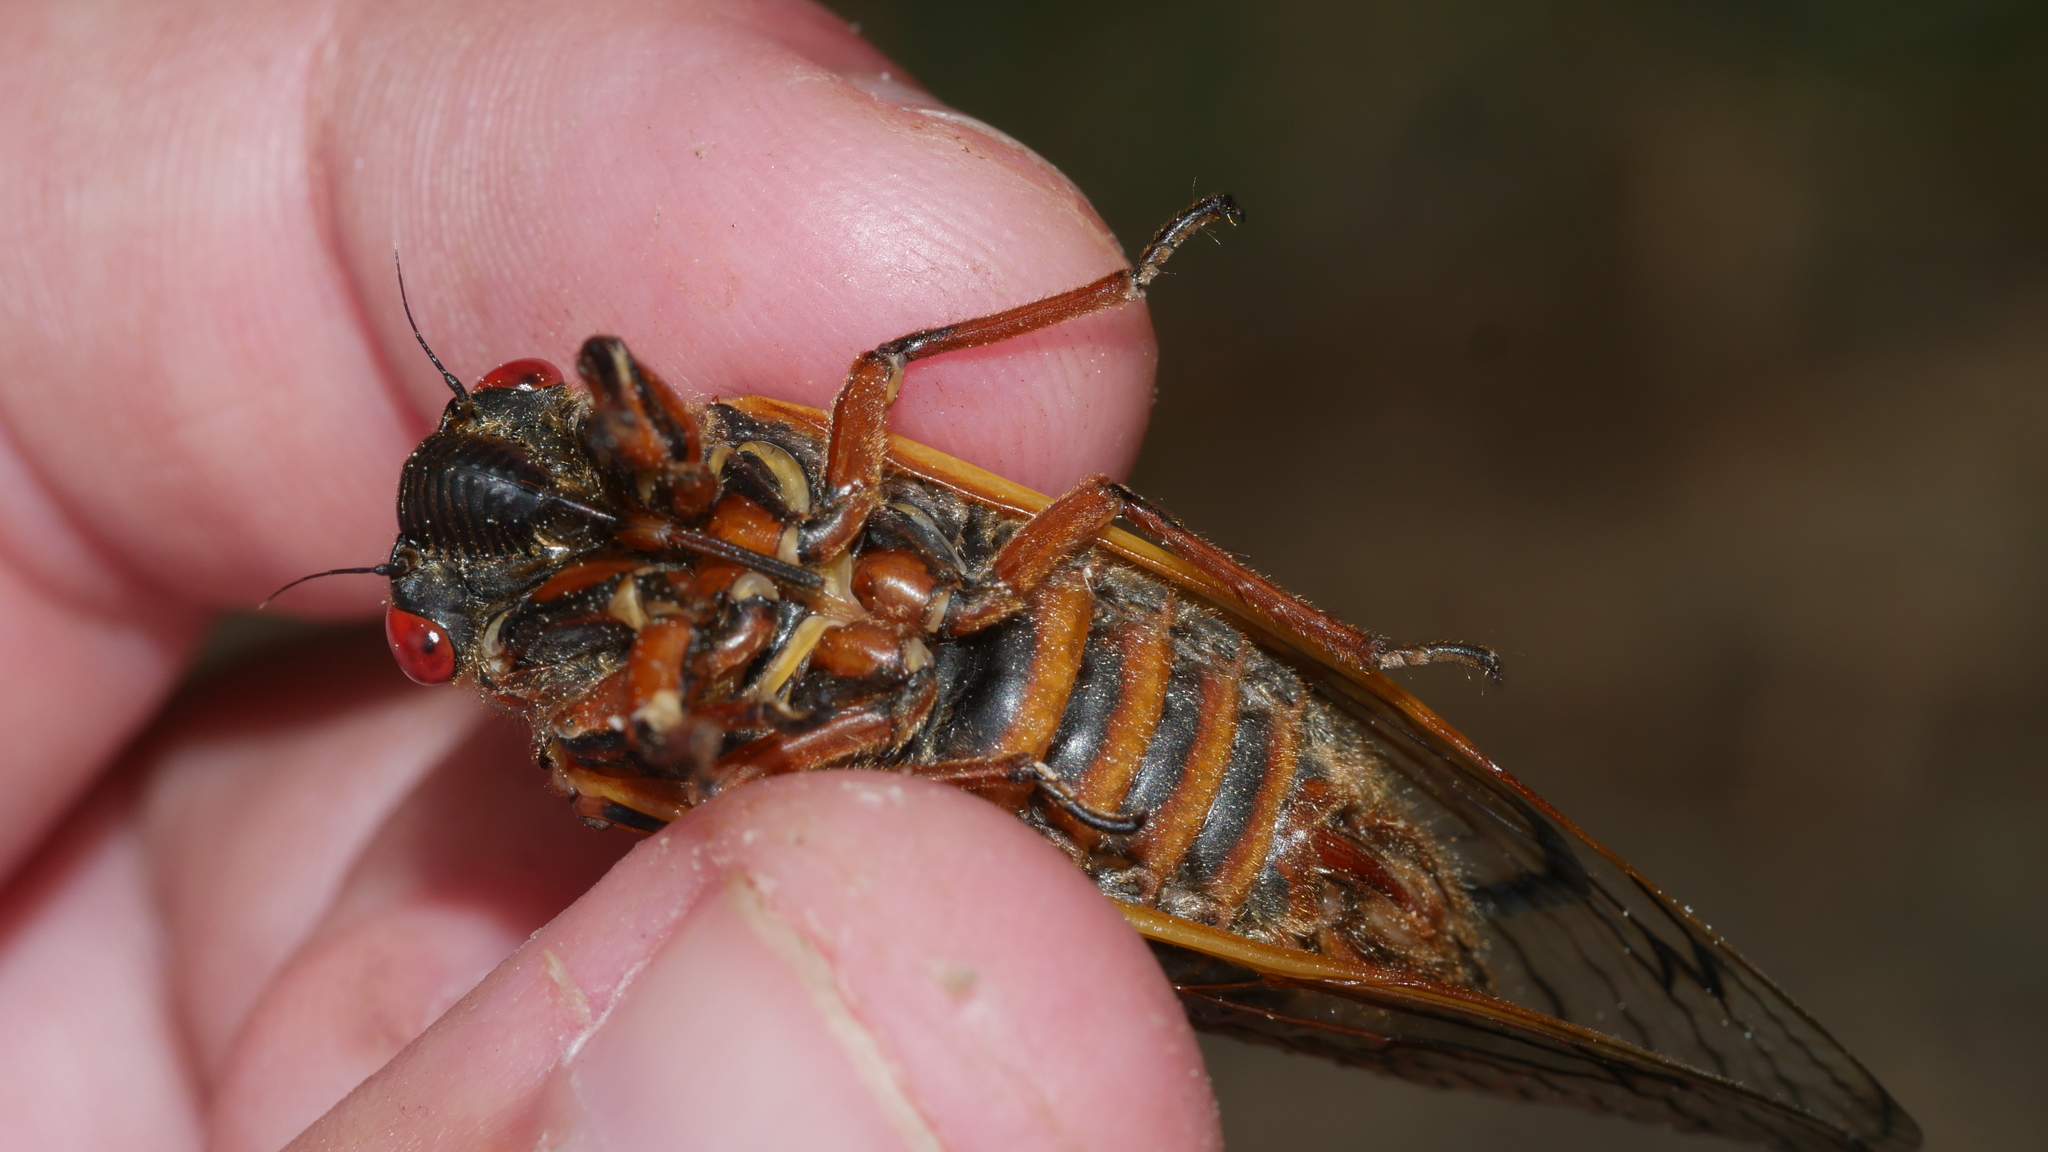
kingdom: Animalia
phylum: Arthropoda
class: Insecta
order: Hemiptera
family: Cicadidae
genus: Magicicada
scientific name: Magicicada septendecim
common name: Periodical cicada
